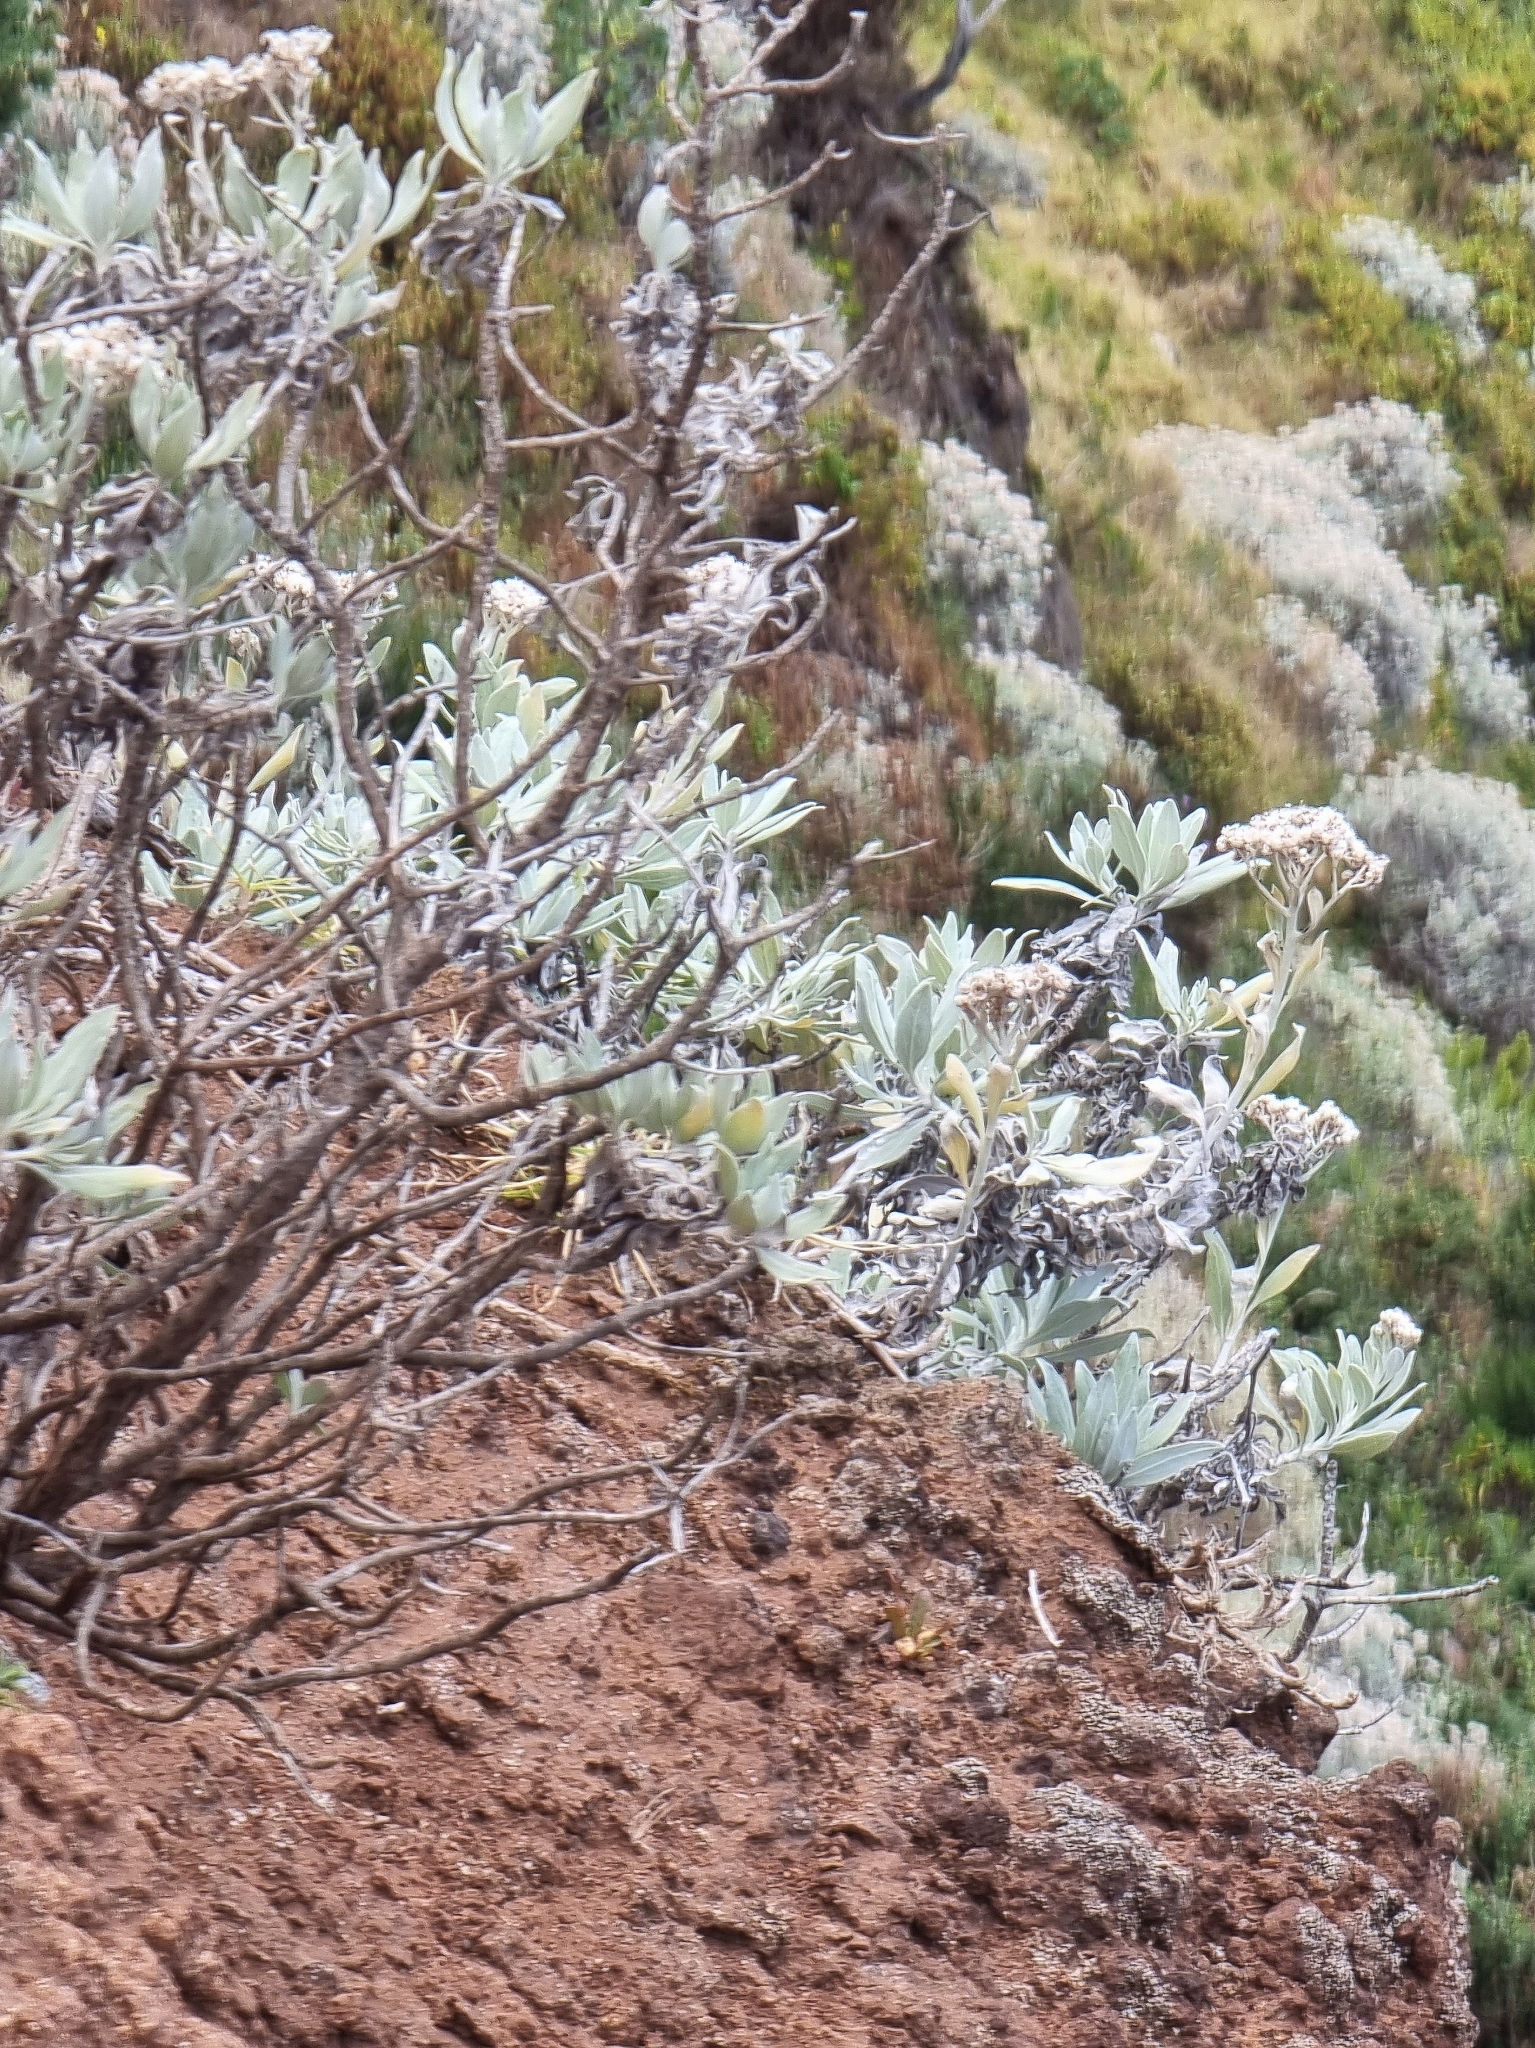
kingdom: Plantae
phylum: Tracheophyta
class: Magnoliopsida
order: Asterales
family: Asteraceae
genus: Helichrysum
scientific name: Helichrysum melaleucum
